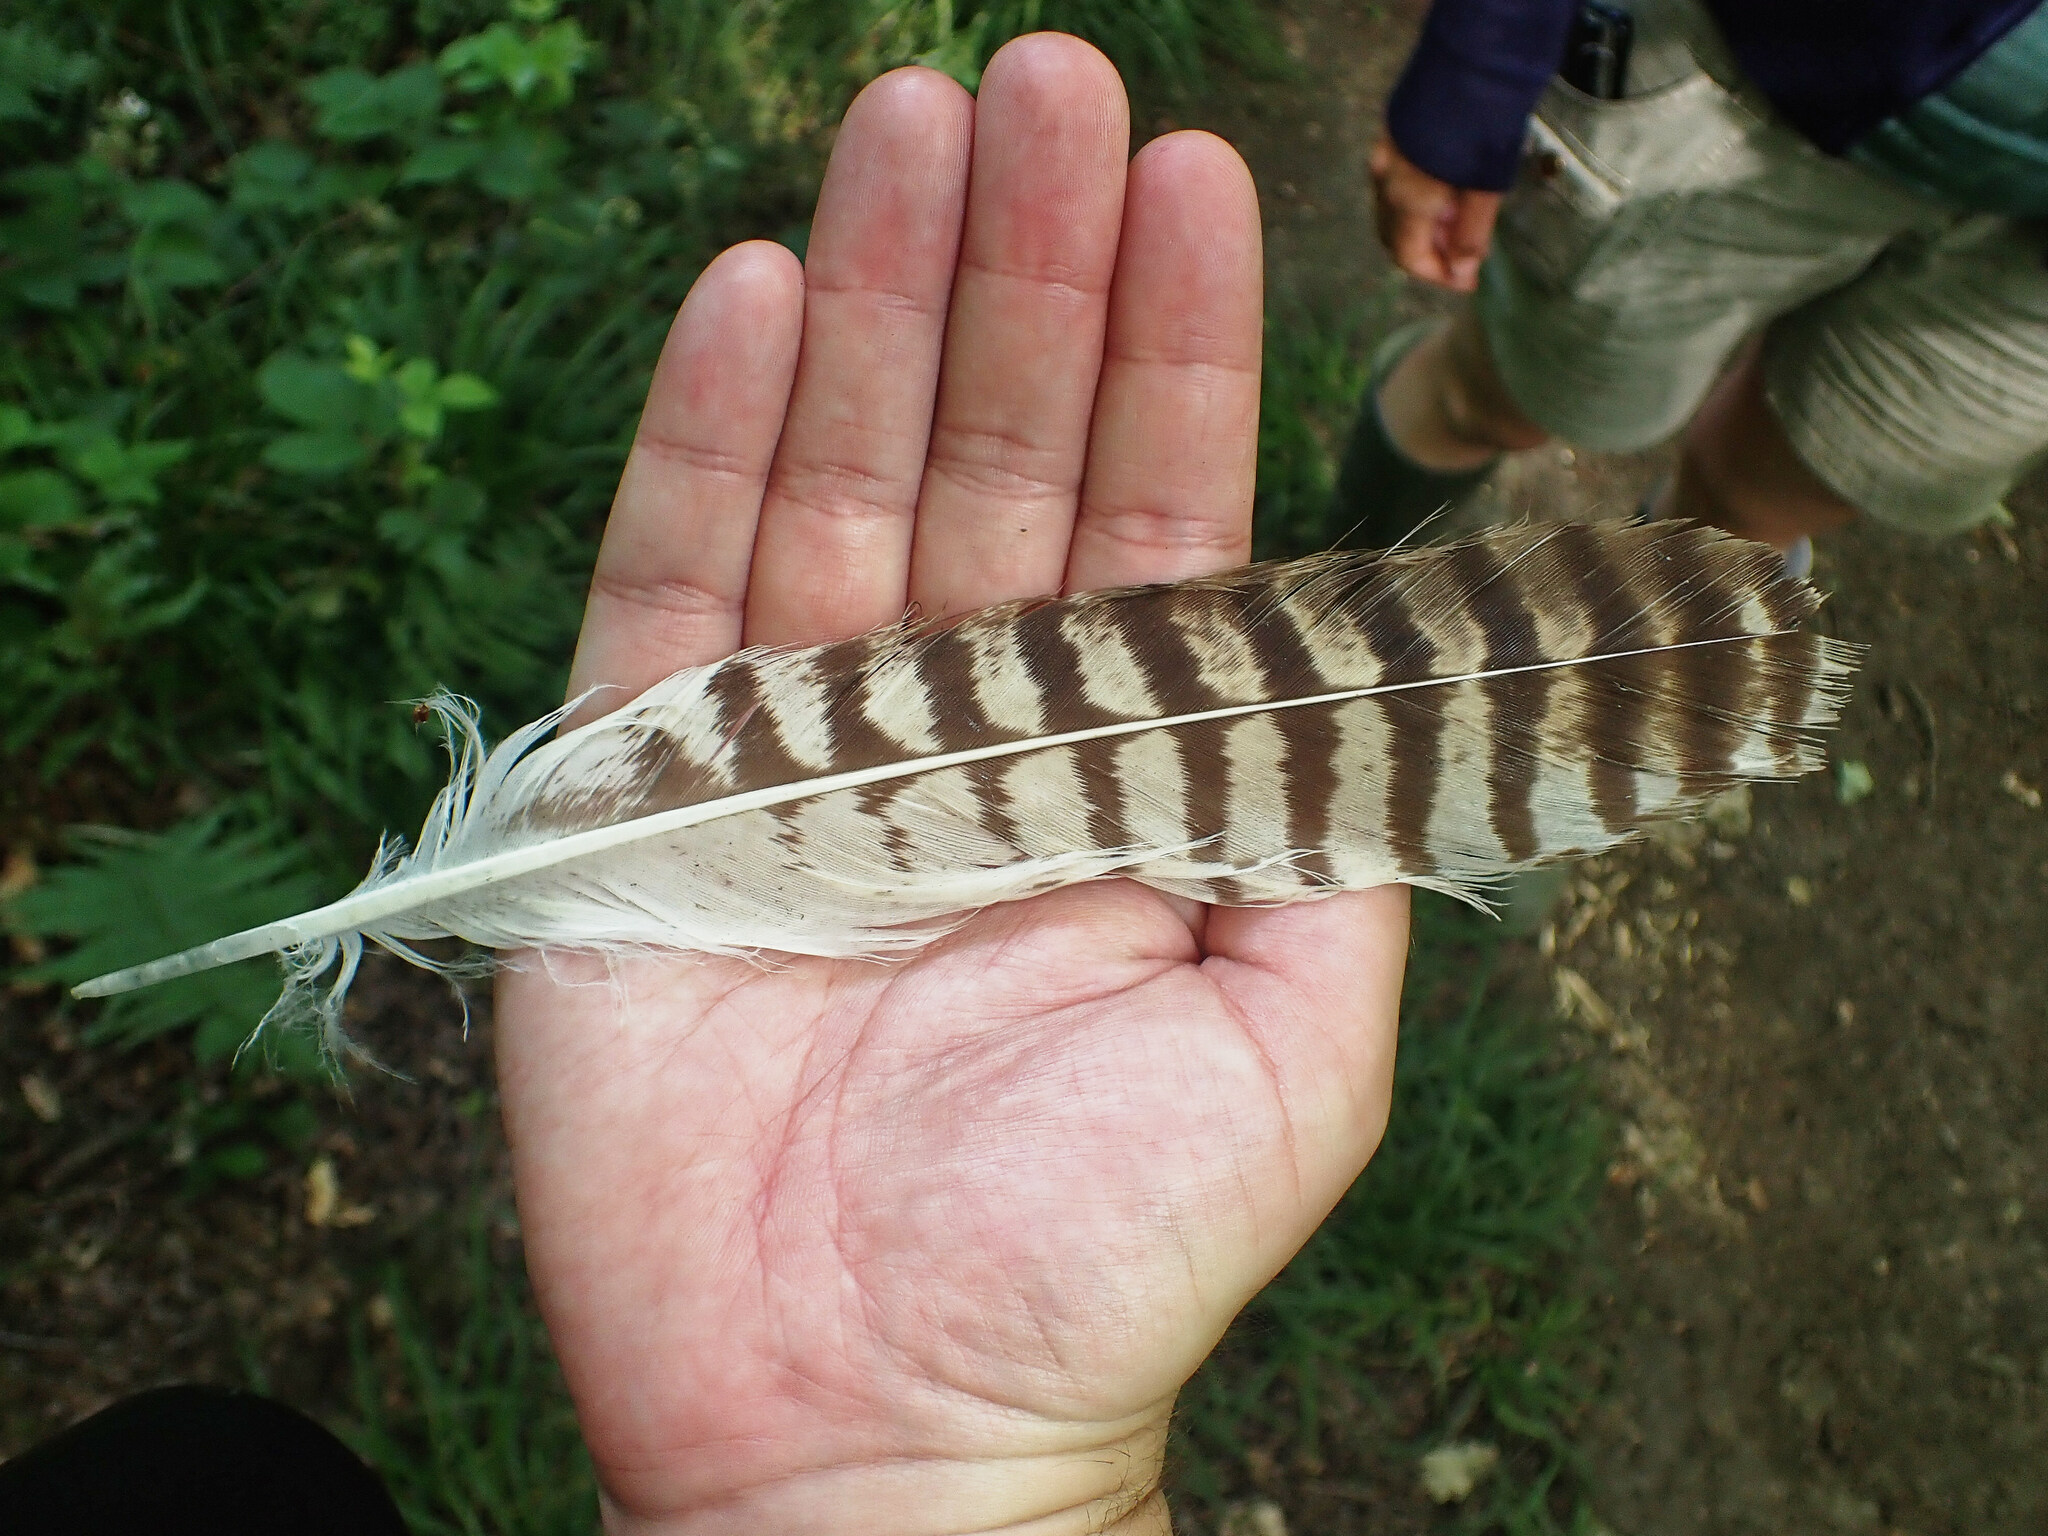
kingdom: Animalia
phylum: Chordata
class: Aves
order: Accipitriformes
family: Accipitridae
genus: Buteo
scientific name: Buteo buteo
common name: Common buzzard
